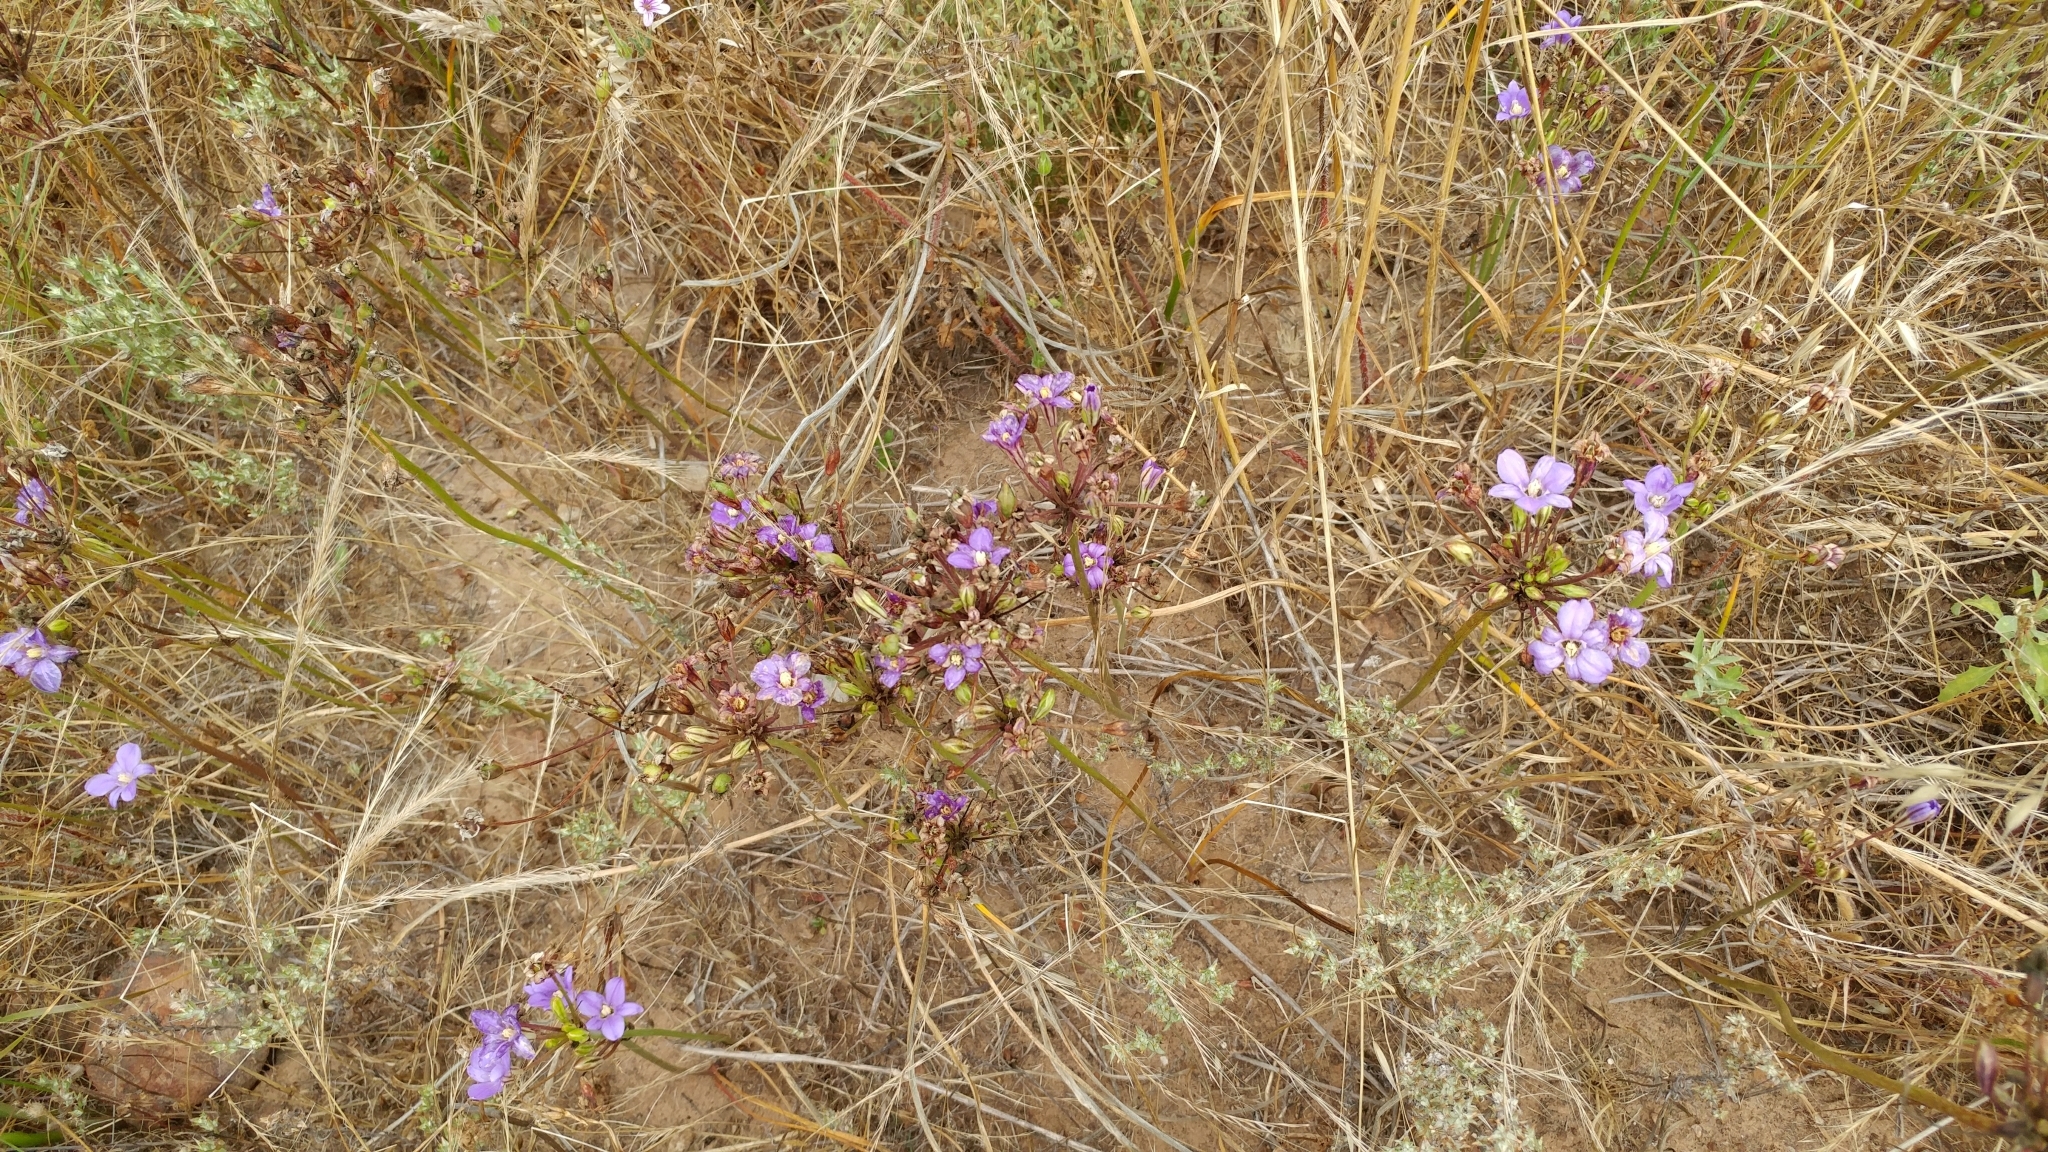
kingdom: Plantae
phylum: Tracheophyta
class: Liliopsida
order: Asparagales
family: Asparagaceae
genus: Brodiaea
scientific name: Brodiaea kinkiensis
